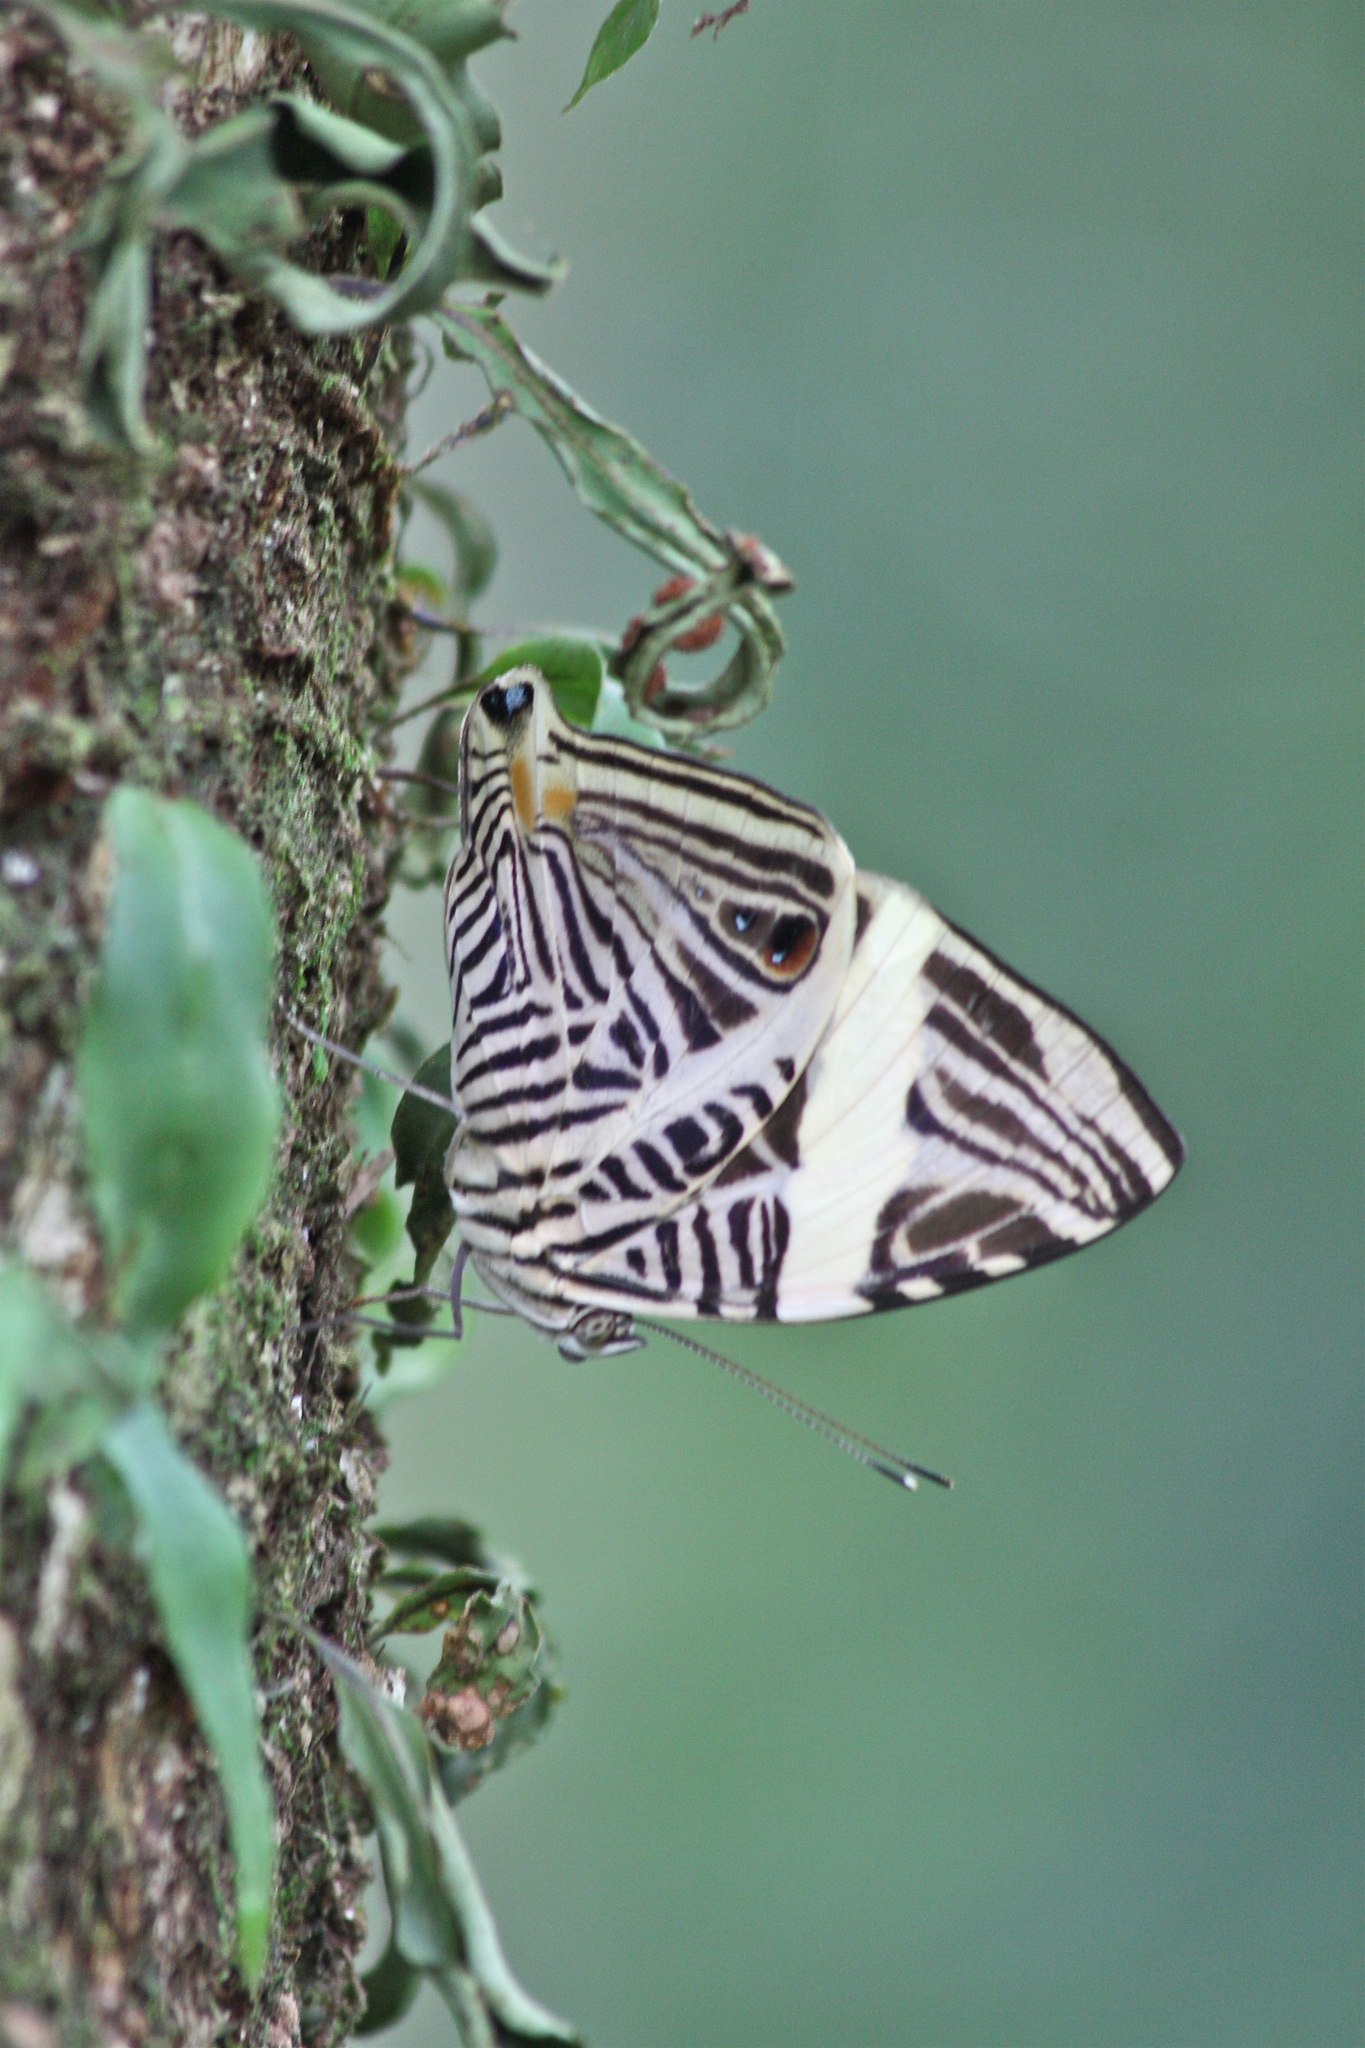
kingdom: Animalia
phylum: Arthropoda
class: Insecta
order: Lepidoptera
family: Nymphalidae
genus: Colobura
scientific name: Colobura dirce
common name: Dirce beauty
